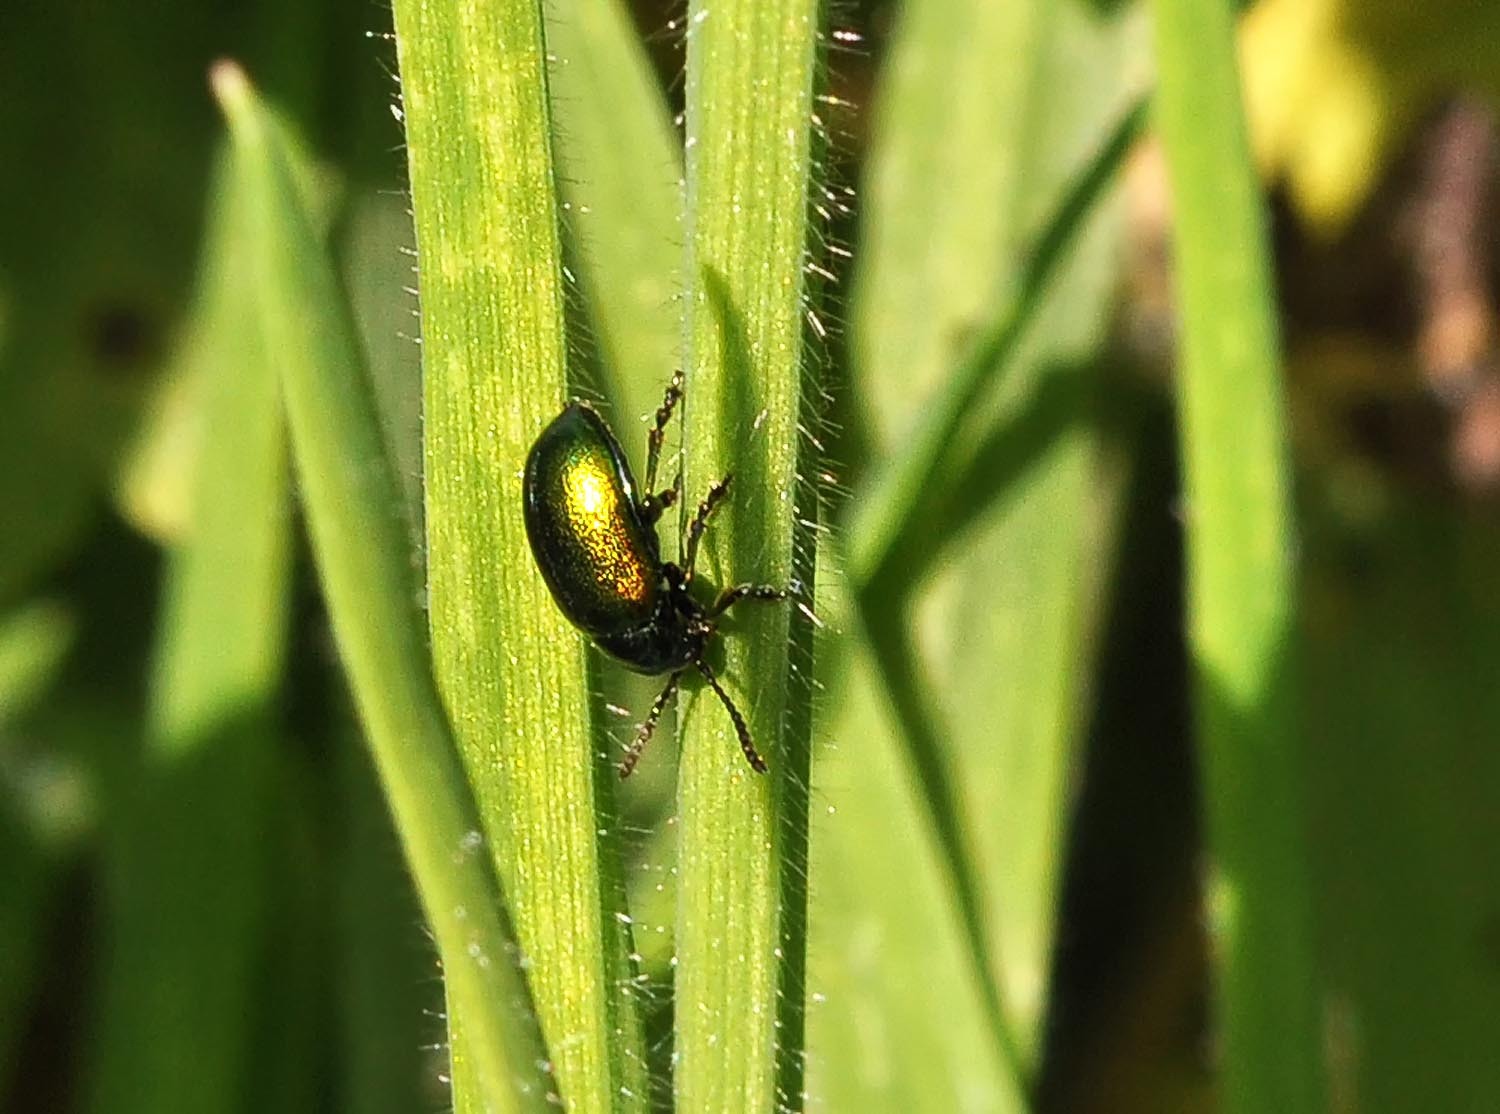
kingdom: Animalia
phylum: Arthropoda
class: Insecta
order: Coleoptera
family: Chrysomelidae
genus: Gastrophysa
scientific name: Gastrophysa viridula
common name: Green dock beetle
